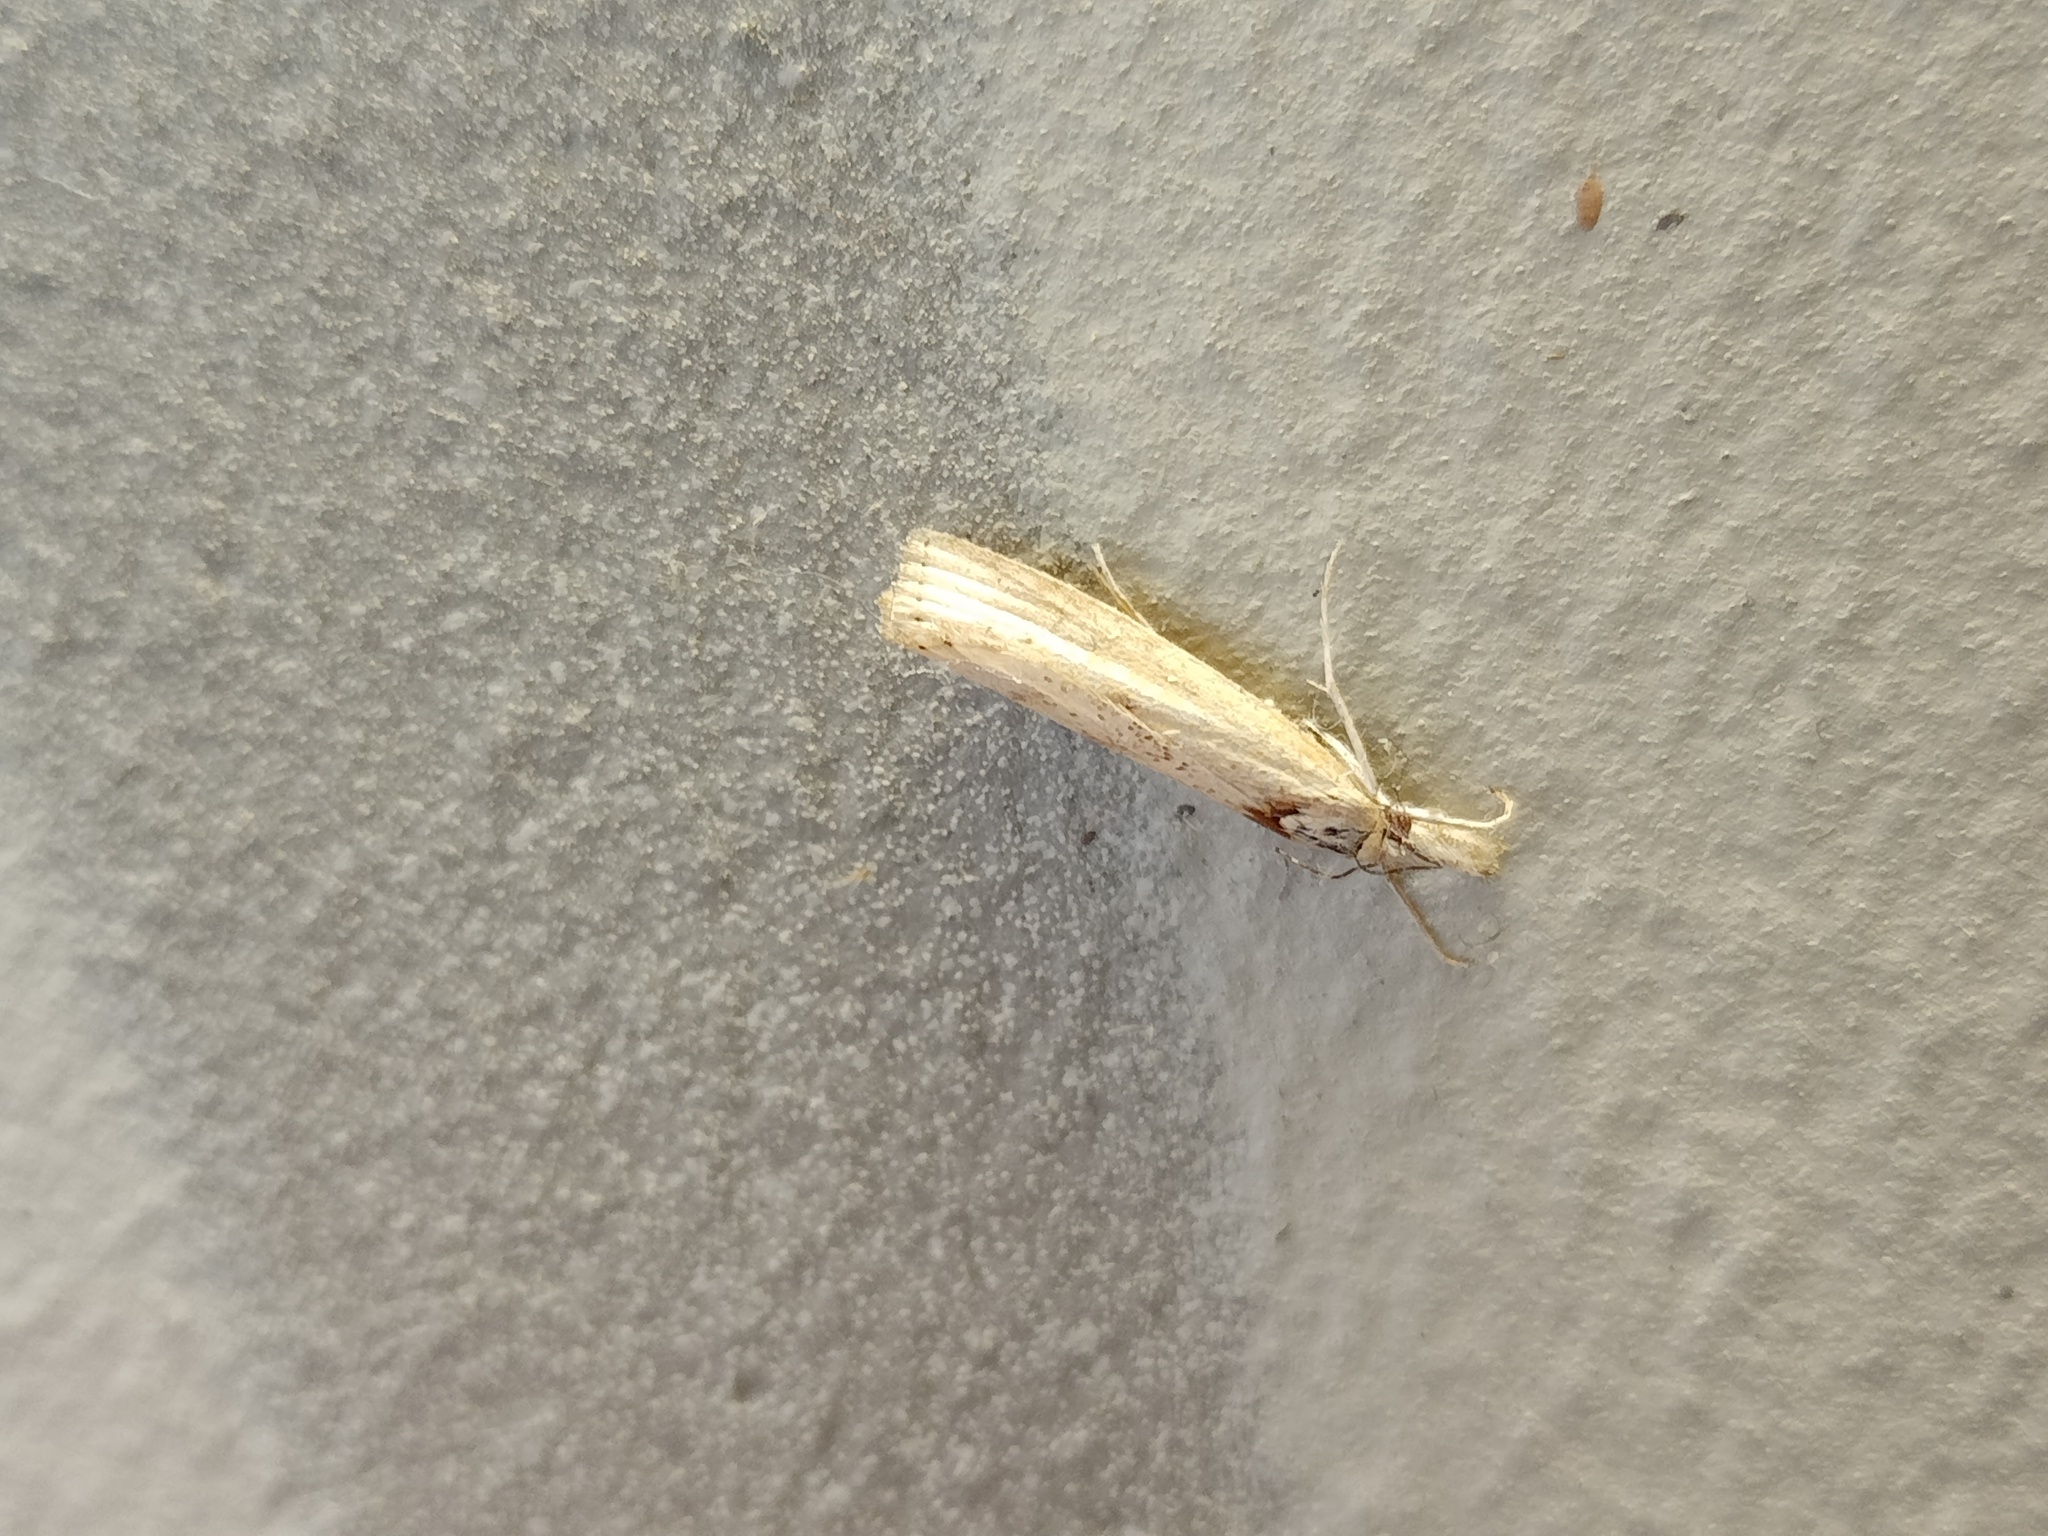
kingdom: Animalia
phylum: Arthropoda
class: Insecta
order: Lepidoptera
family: Crambidae
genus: Agriphila
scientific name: Agriphila straminella
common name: Straw grass-veneer
